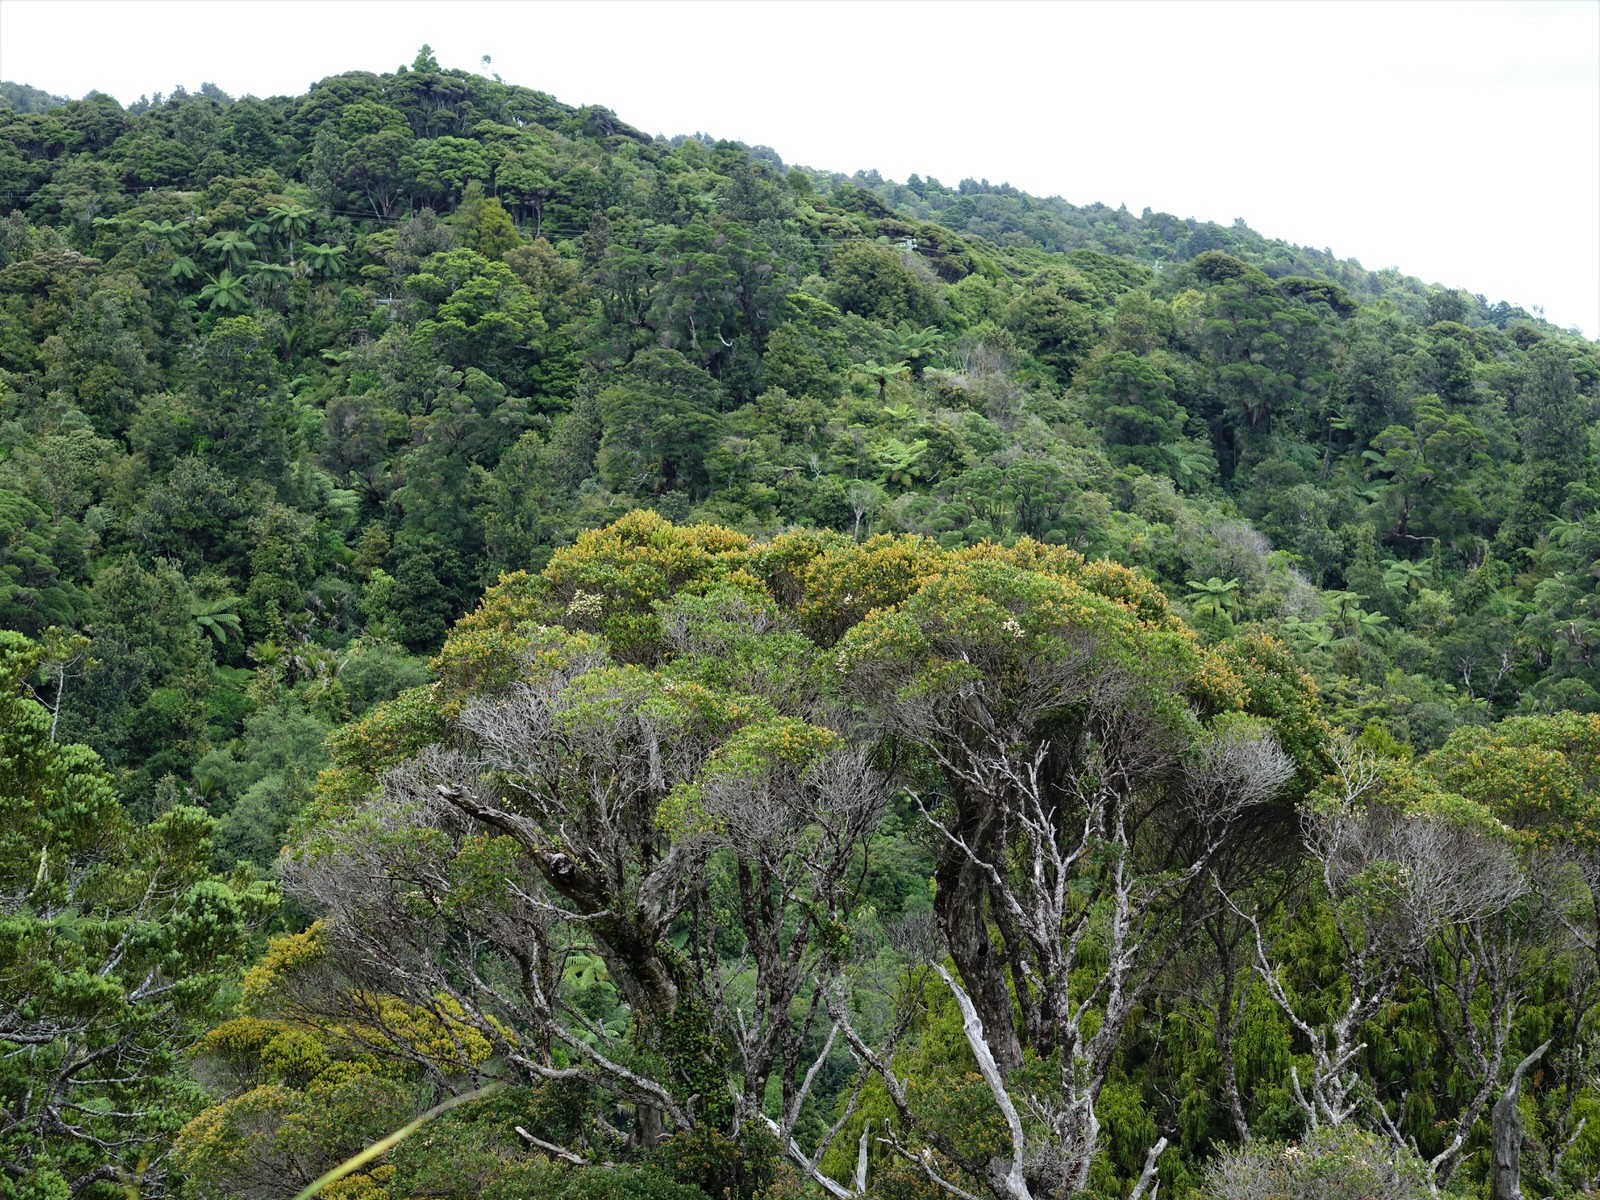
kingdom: Plantae
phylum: Tracheophyta
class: Magnoliopsida
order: Myrtales
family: Myrtaceae
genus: Metrosideros
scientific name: Metrosideros robusta
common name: Northern rata
